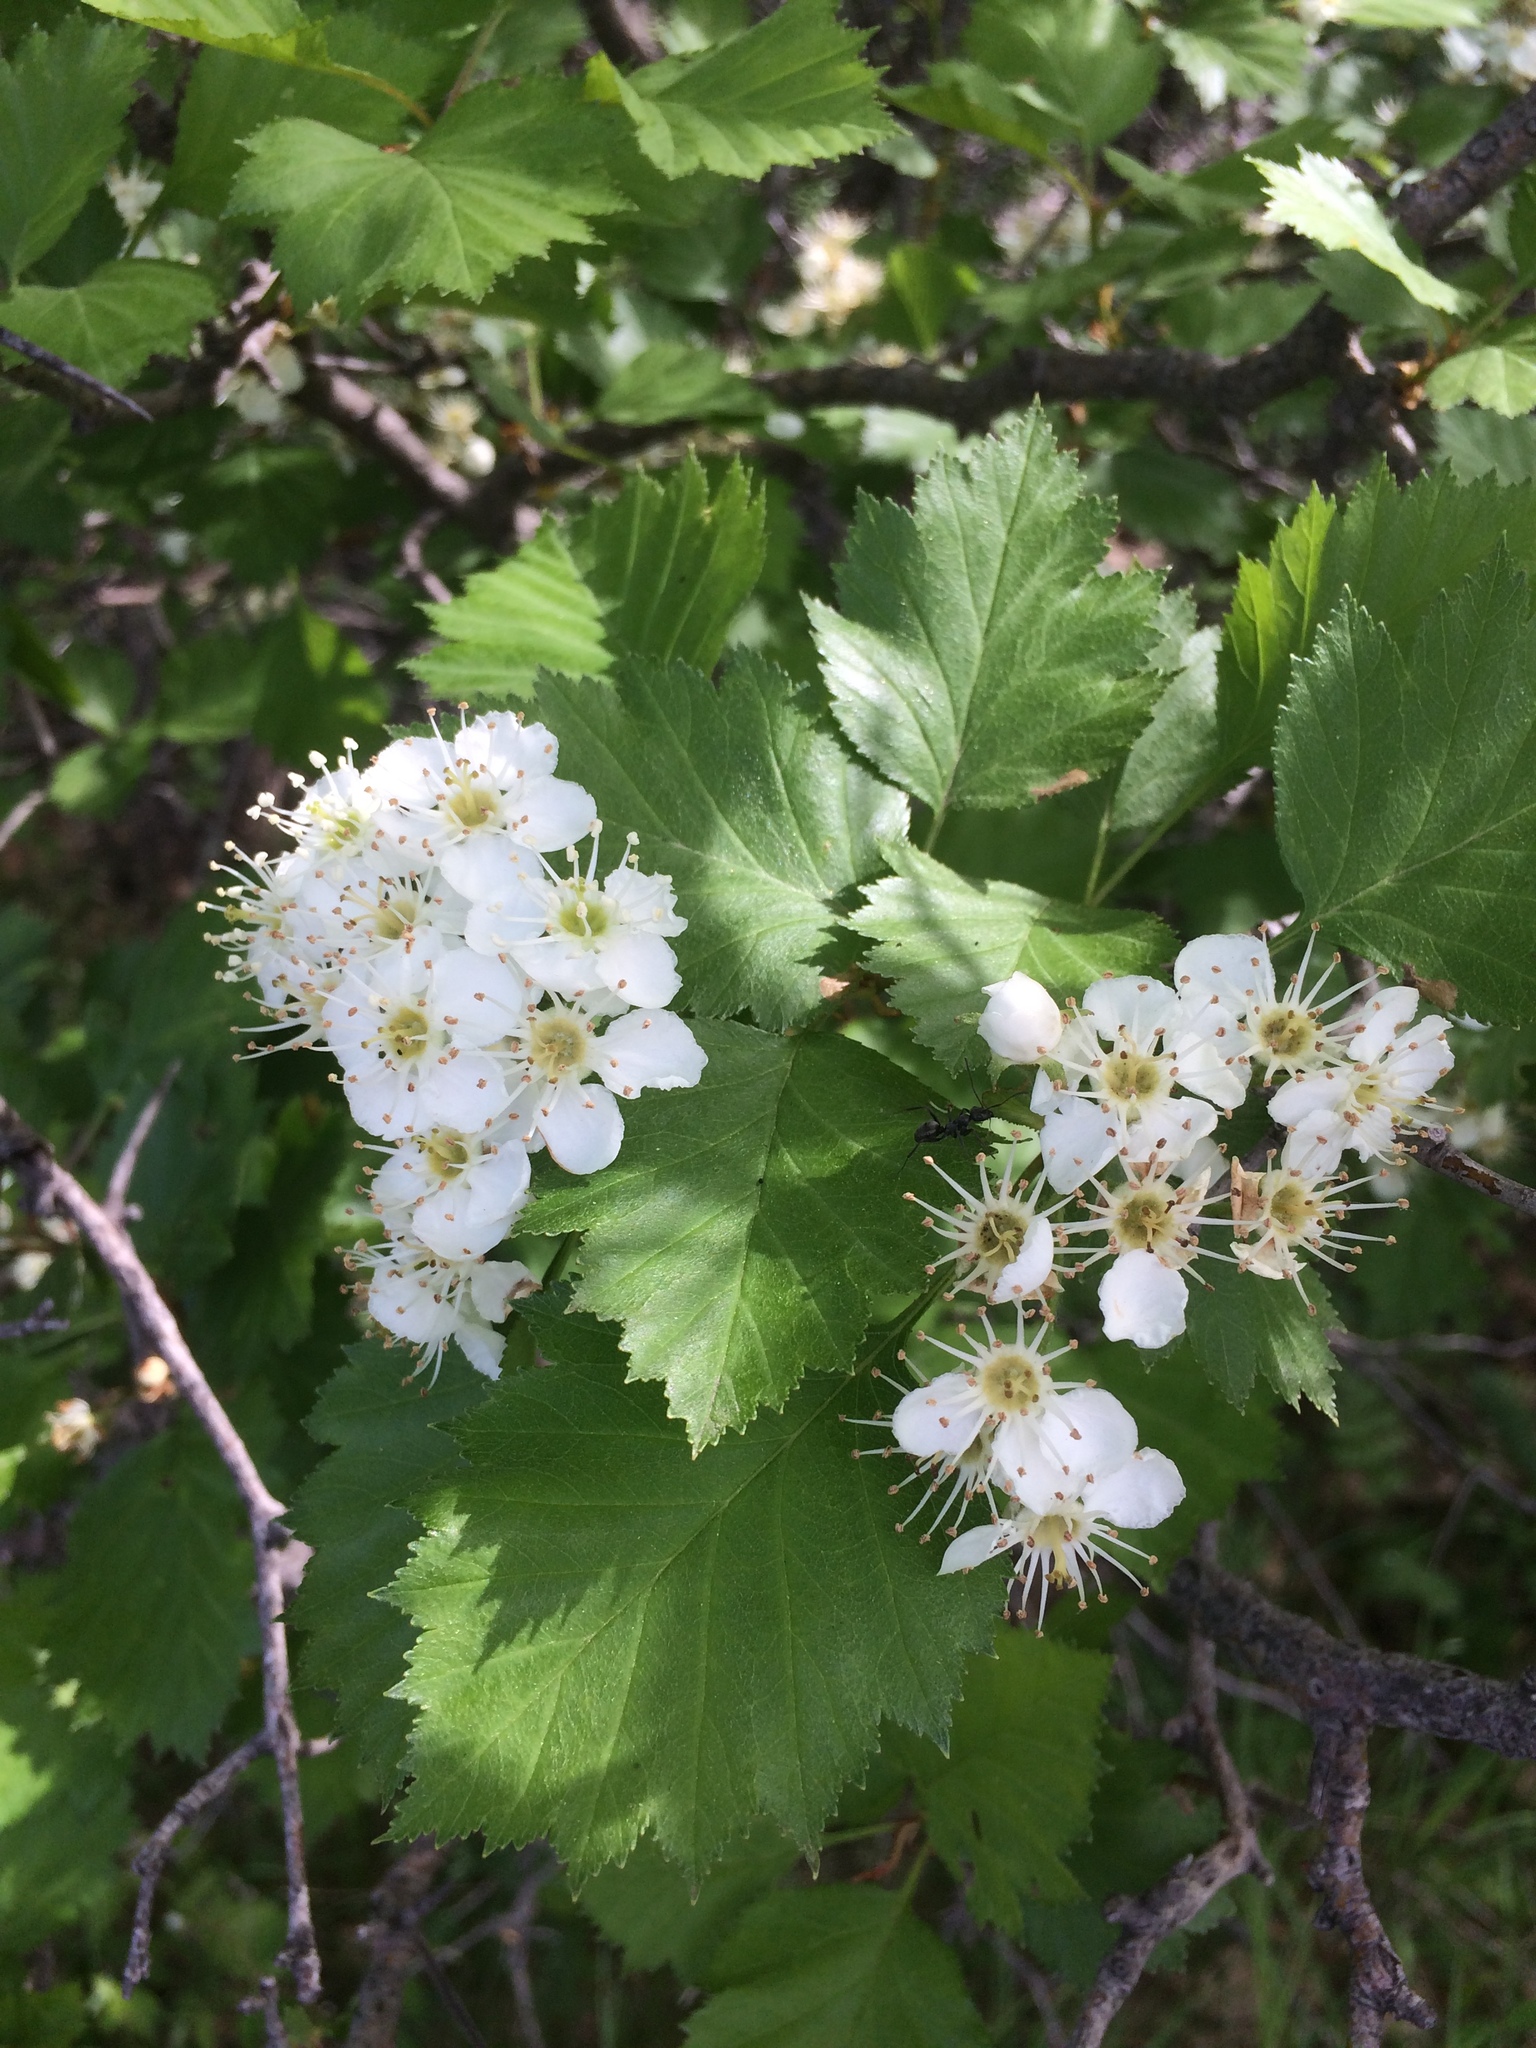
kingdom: Plantae
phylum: Tracheophyta
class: Magnoliopsida
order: Rosales
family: Rosaceae
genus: Crataegus
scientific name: Crataegus irrasa
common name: Unshorn hawthorn
